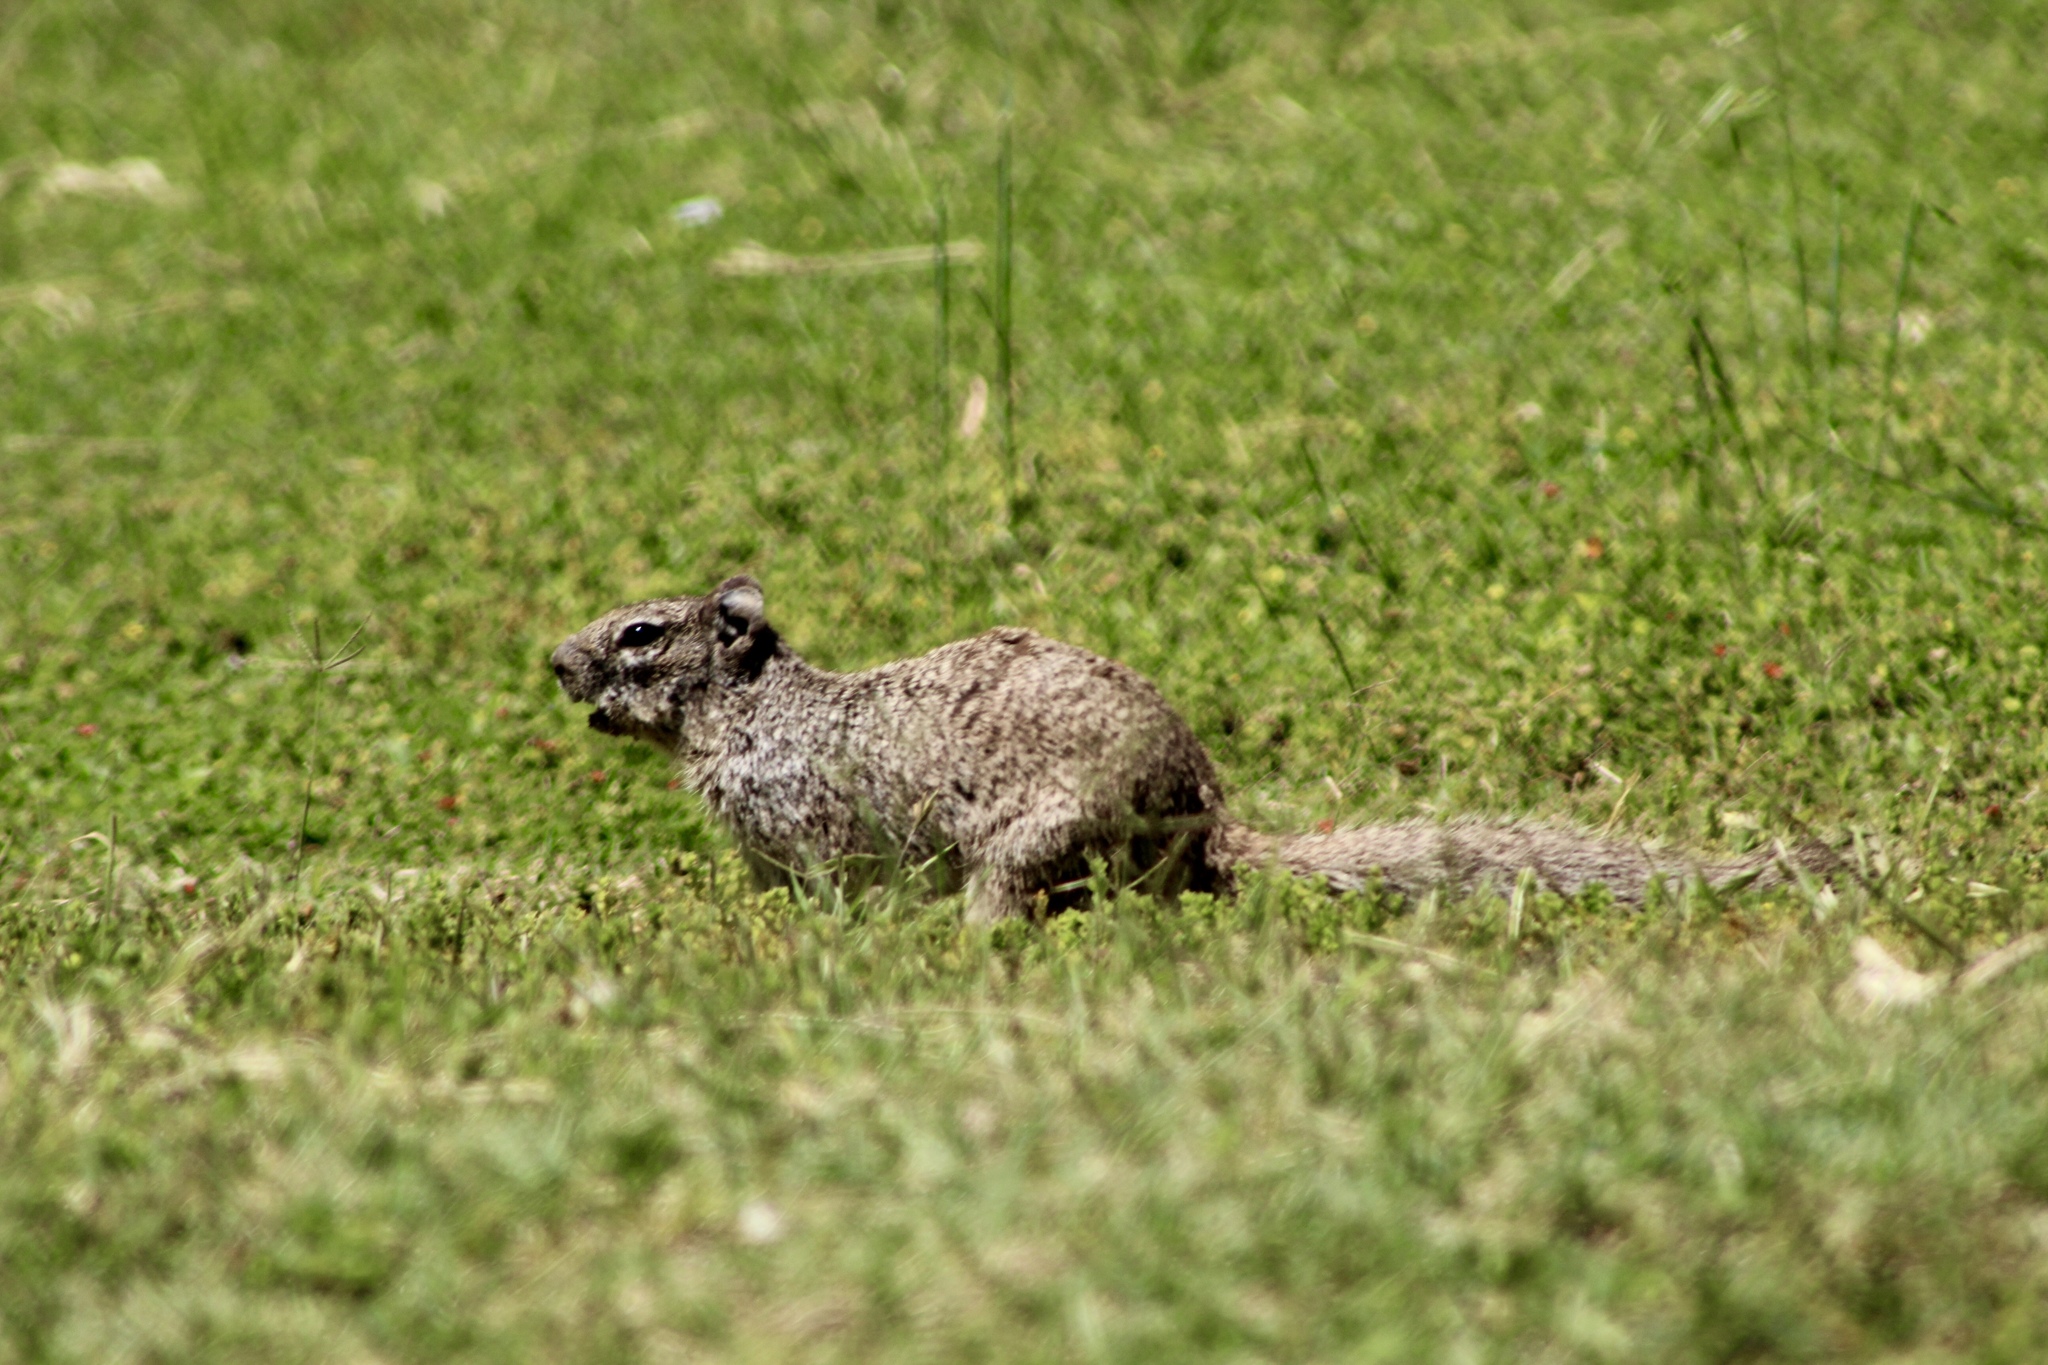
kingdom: Animalia
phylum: Chordata
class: Mammalia
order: Rodentia
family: Sciuridae
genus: Otospermophilus
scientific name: Otospermophilus variegatus
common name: Rock squirrel
